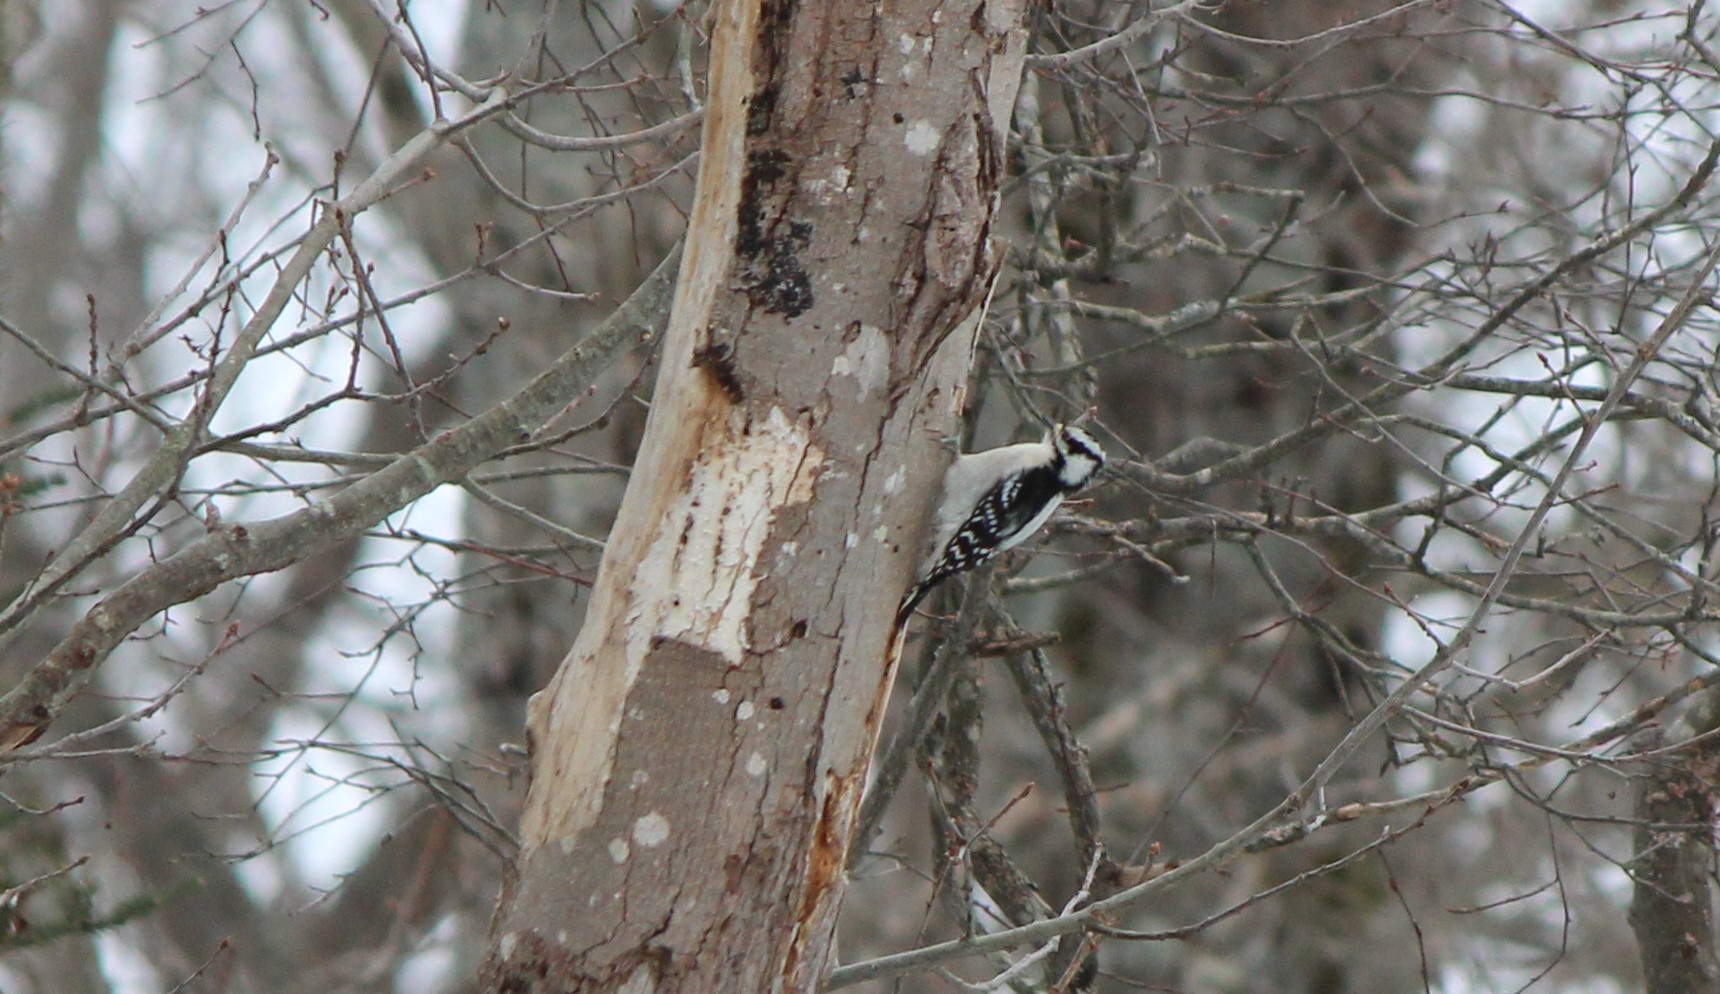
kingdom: Animalia
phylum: Chordata
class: Aves
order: Piciformes
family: Picidae
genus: Dryobates
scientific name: Dryobates pubescens
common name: Downy woodpecker
